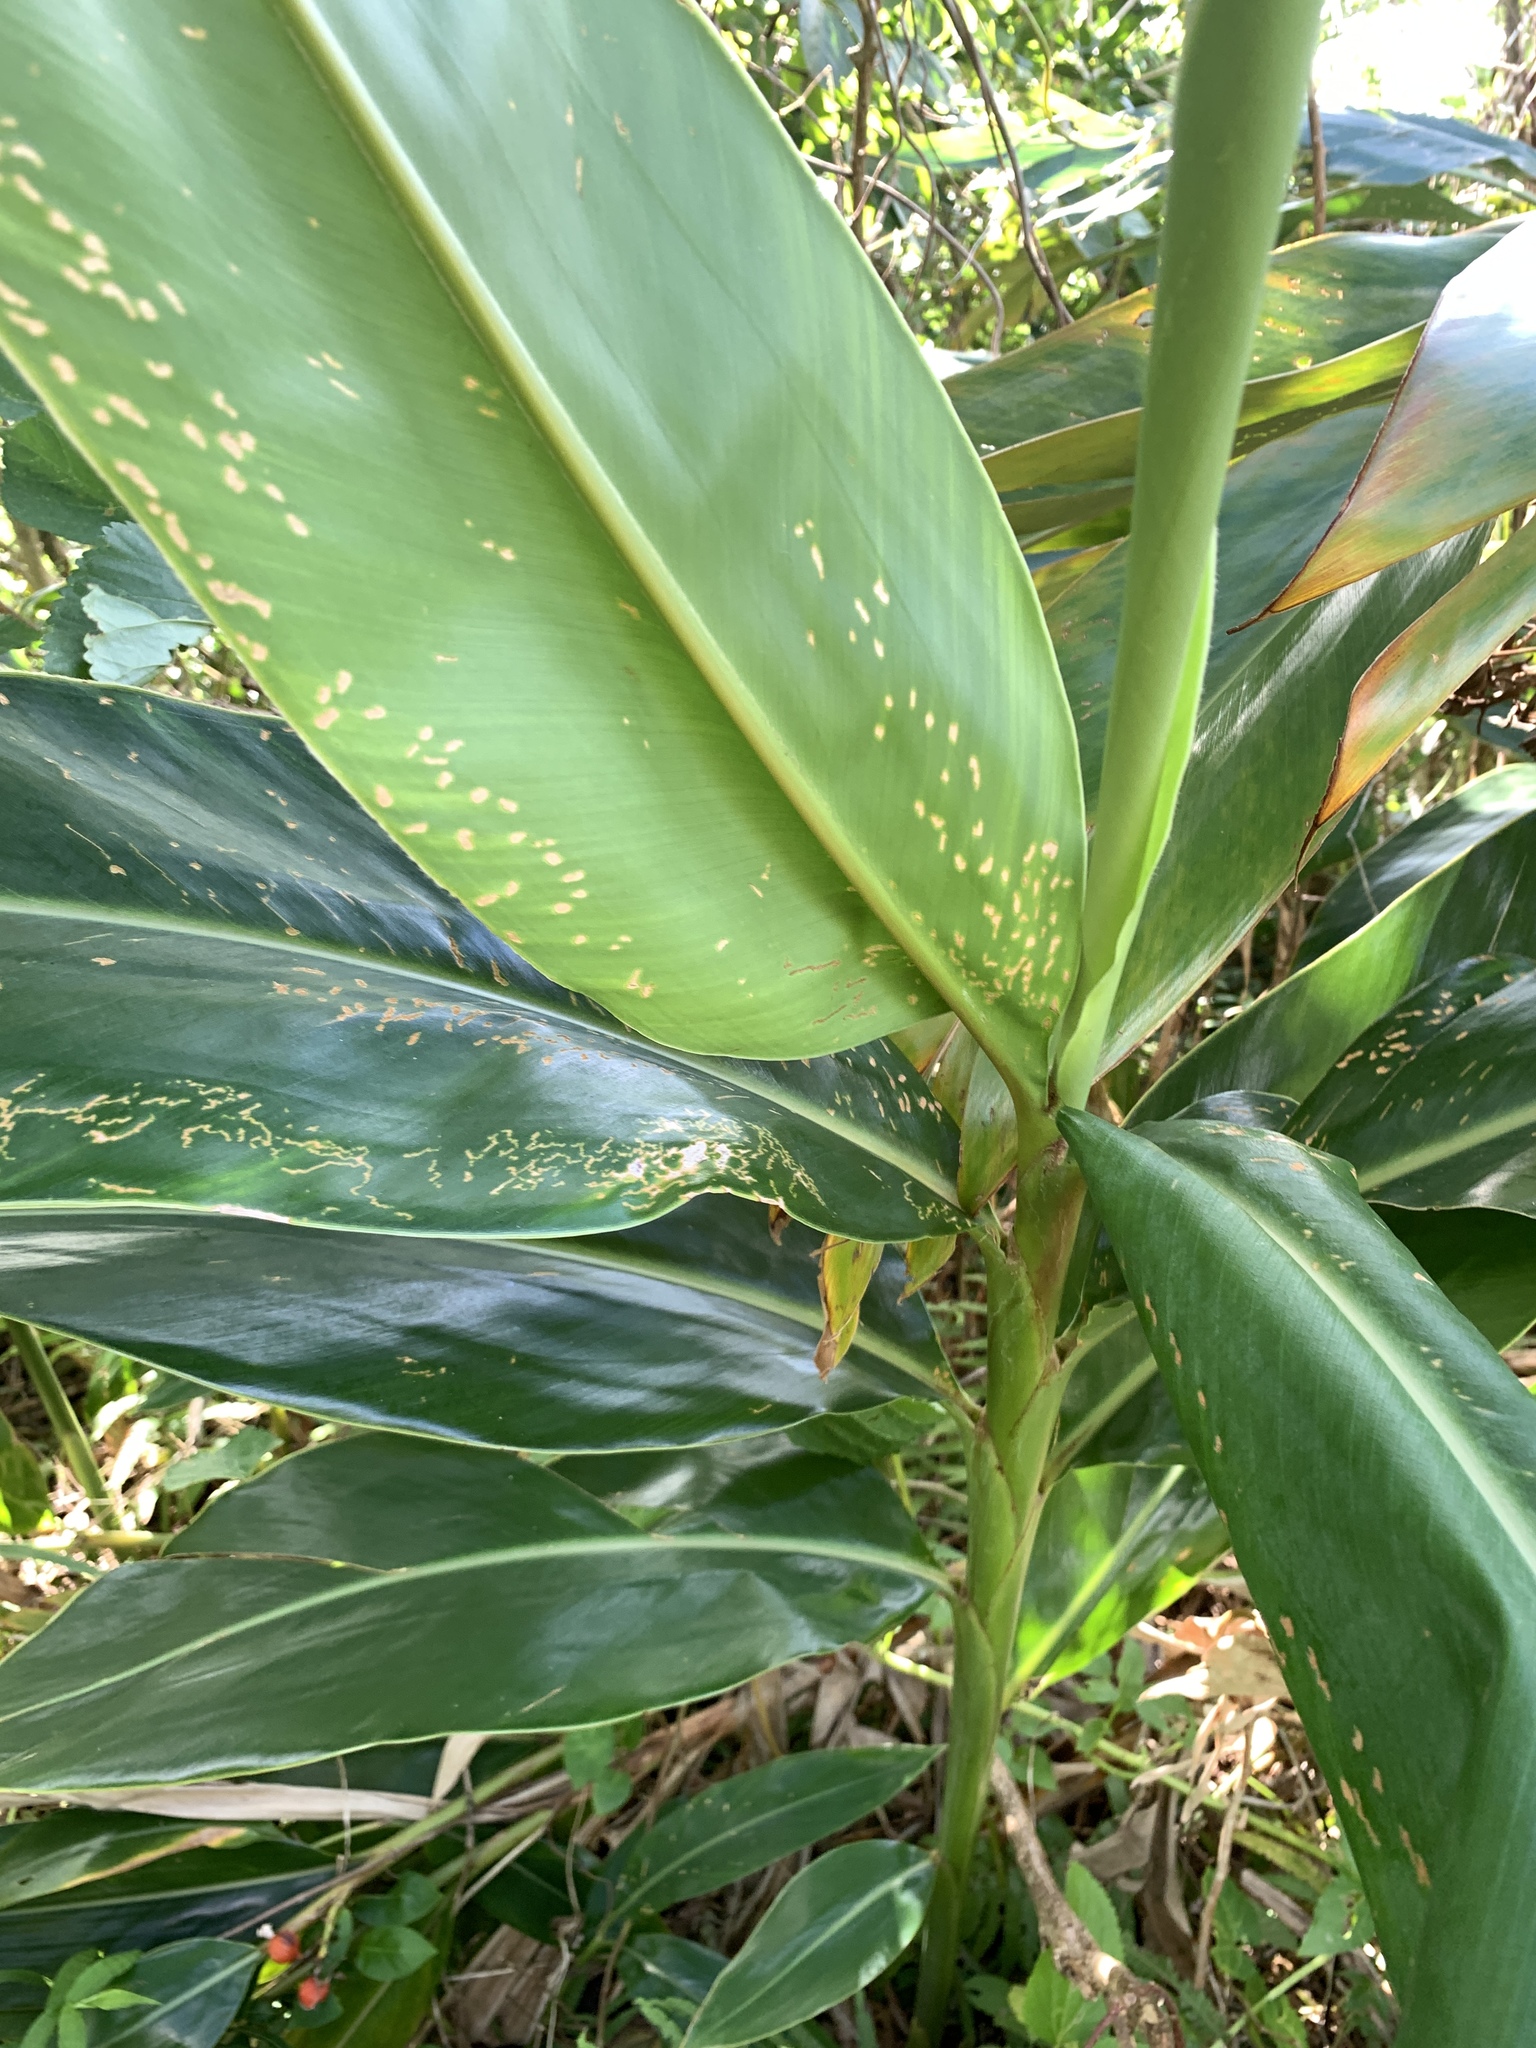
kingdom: Plantae
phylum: Tracheophyta
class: Liliopsida
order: Zingiberales
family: Zingiberaceae
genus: Alpinia
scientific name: Alpinia zerumbet
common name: Shellplant
